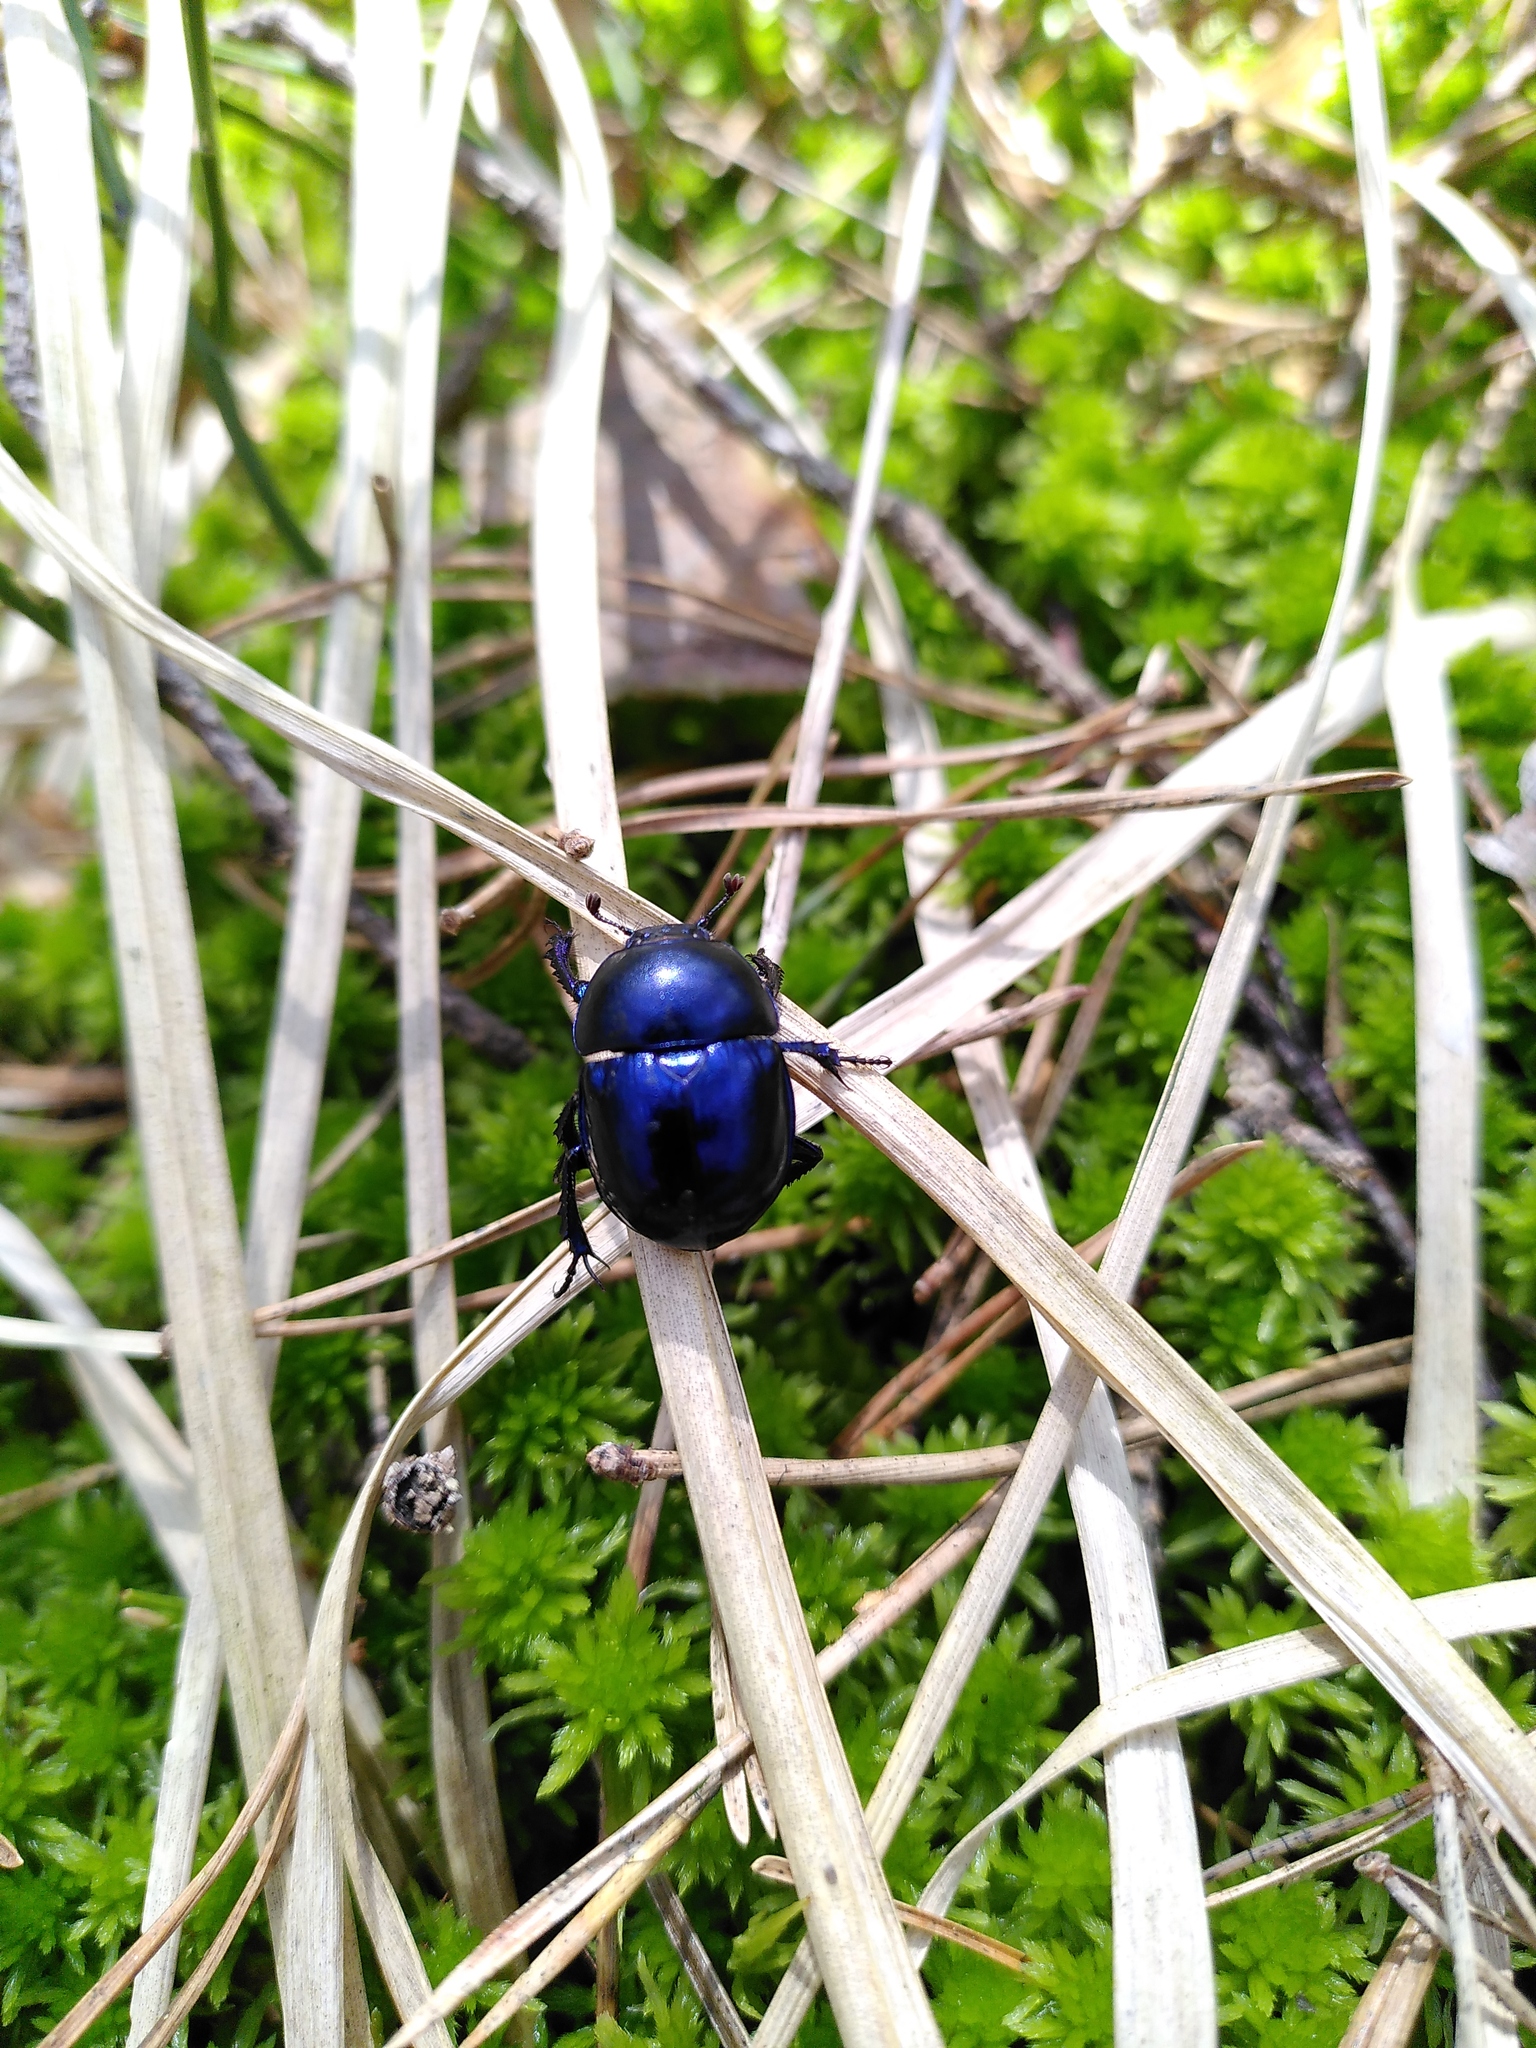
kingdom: Animalia
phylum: Arthropoda
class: Insecta
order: Coleoptera
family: Geotrupidae
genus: Trypocopris
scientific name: Trypocopris vernalis
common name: Spring dumbledor
